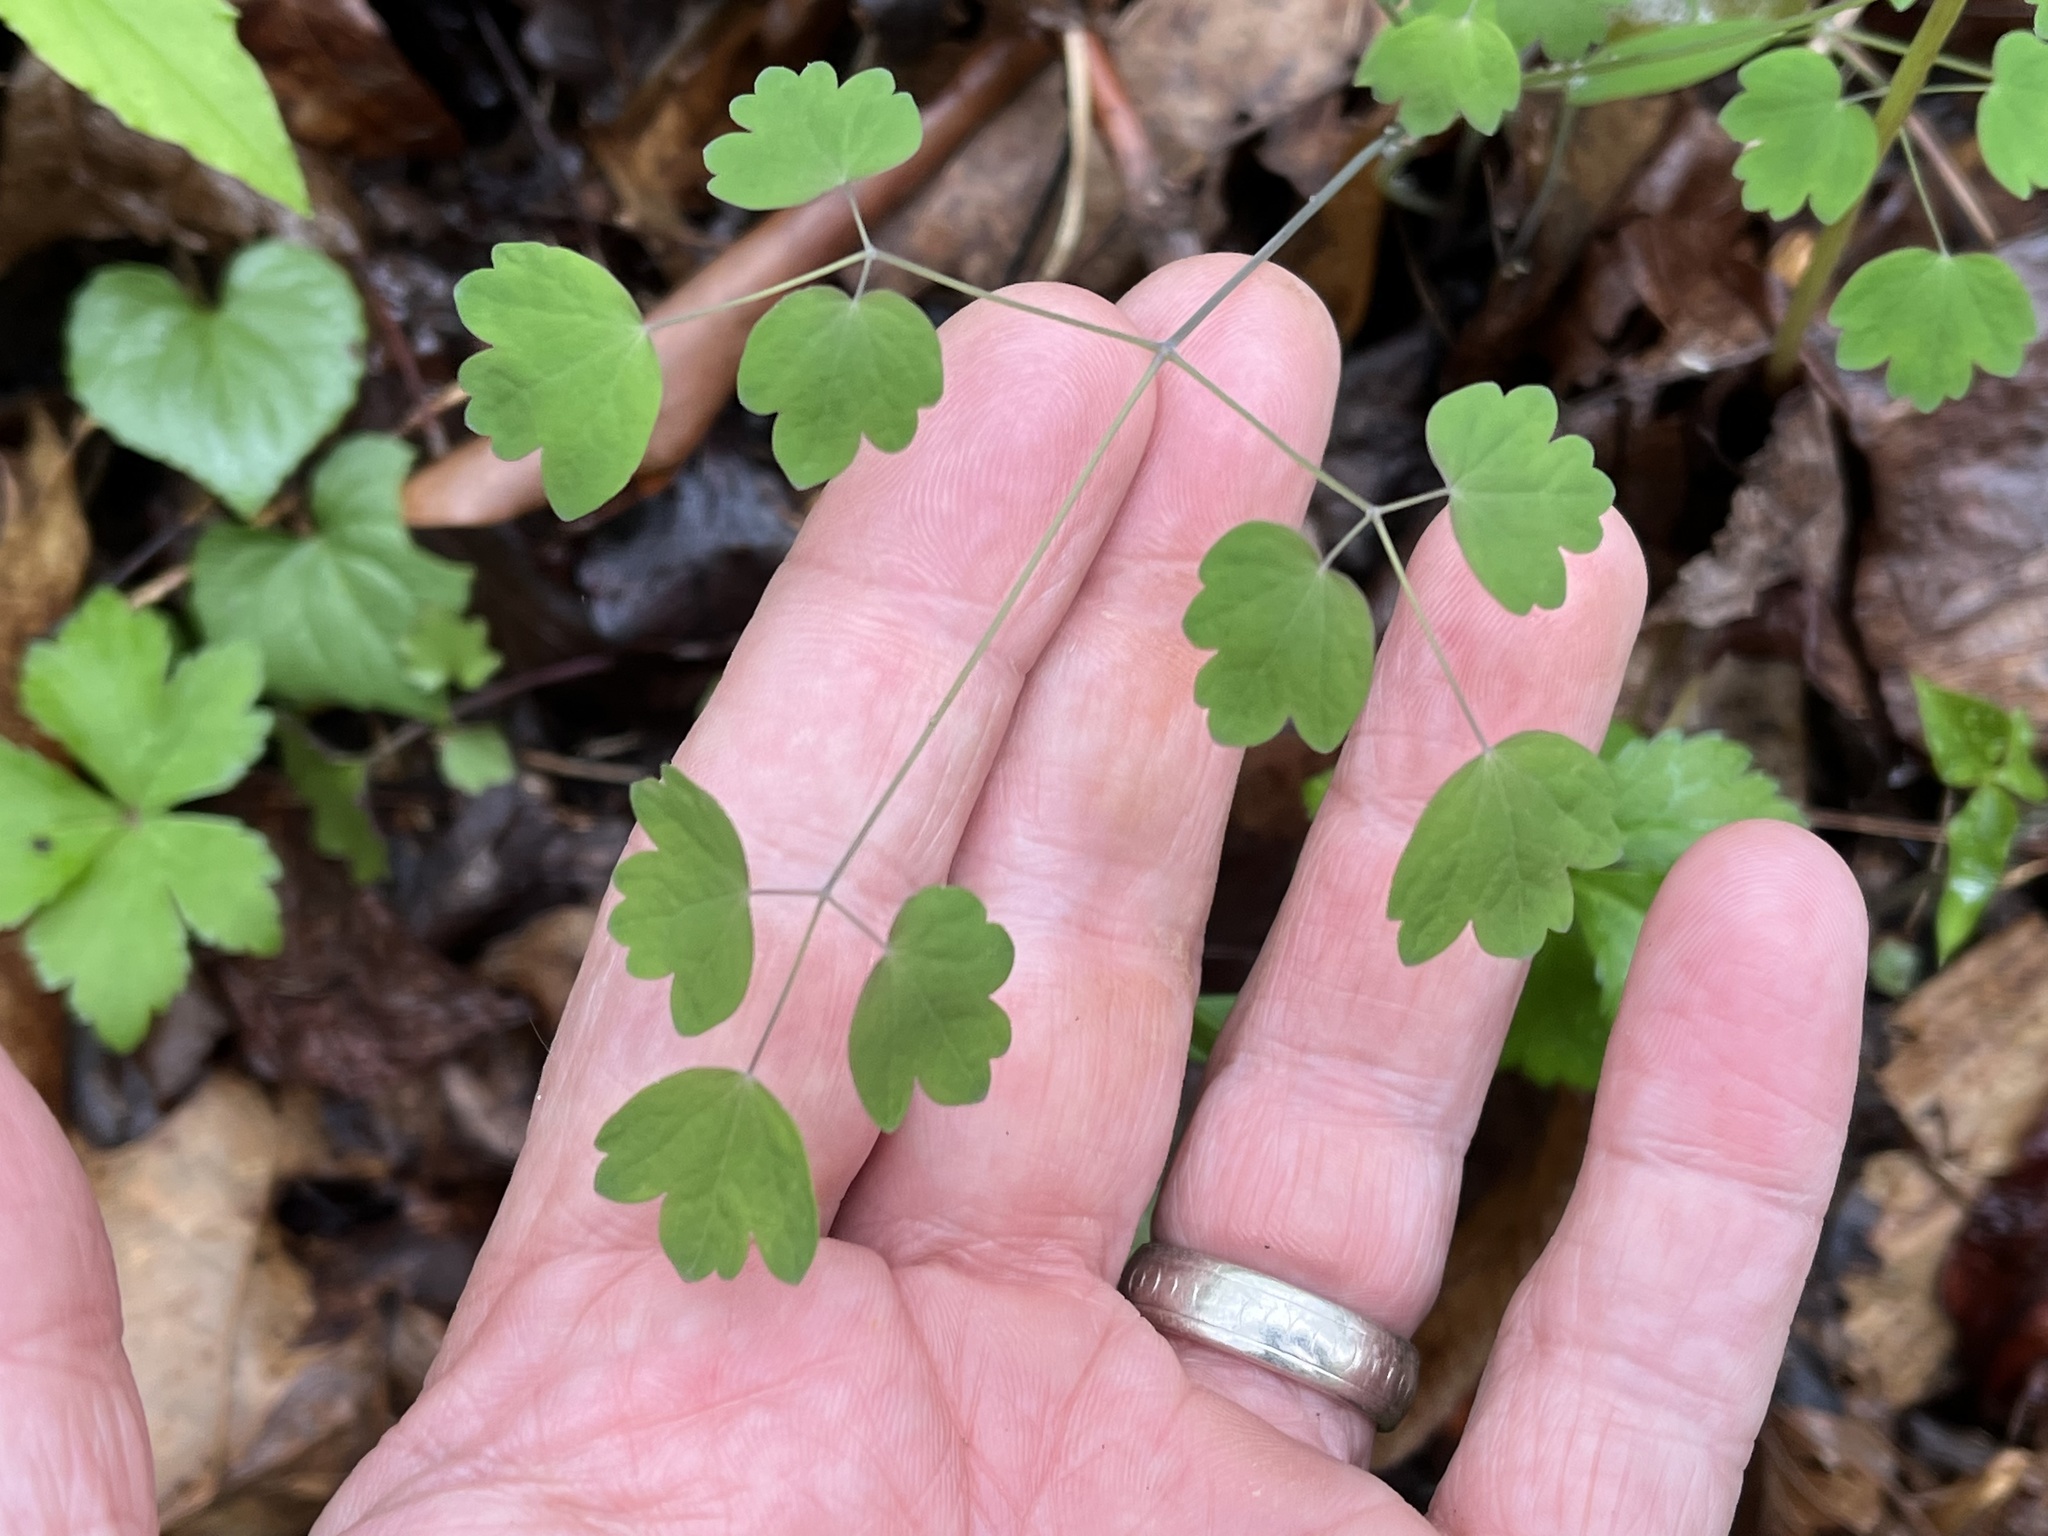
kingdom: Plantae
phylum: Tracheophyta
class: Magnoliopsida
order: Ranunculales
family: Ranunculaceae
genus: Thalictrum
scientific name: Thalictrum dioicum
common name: Early meadow-rue
